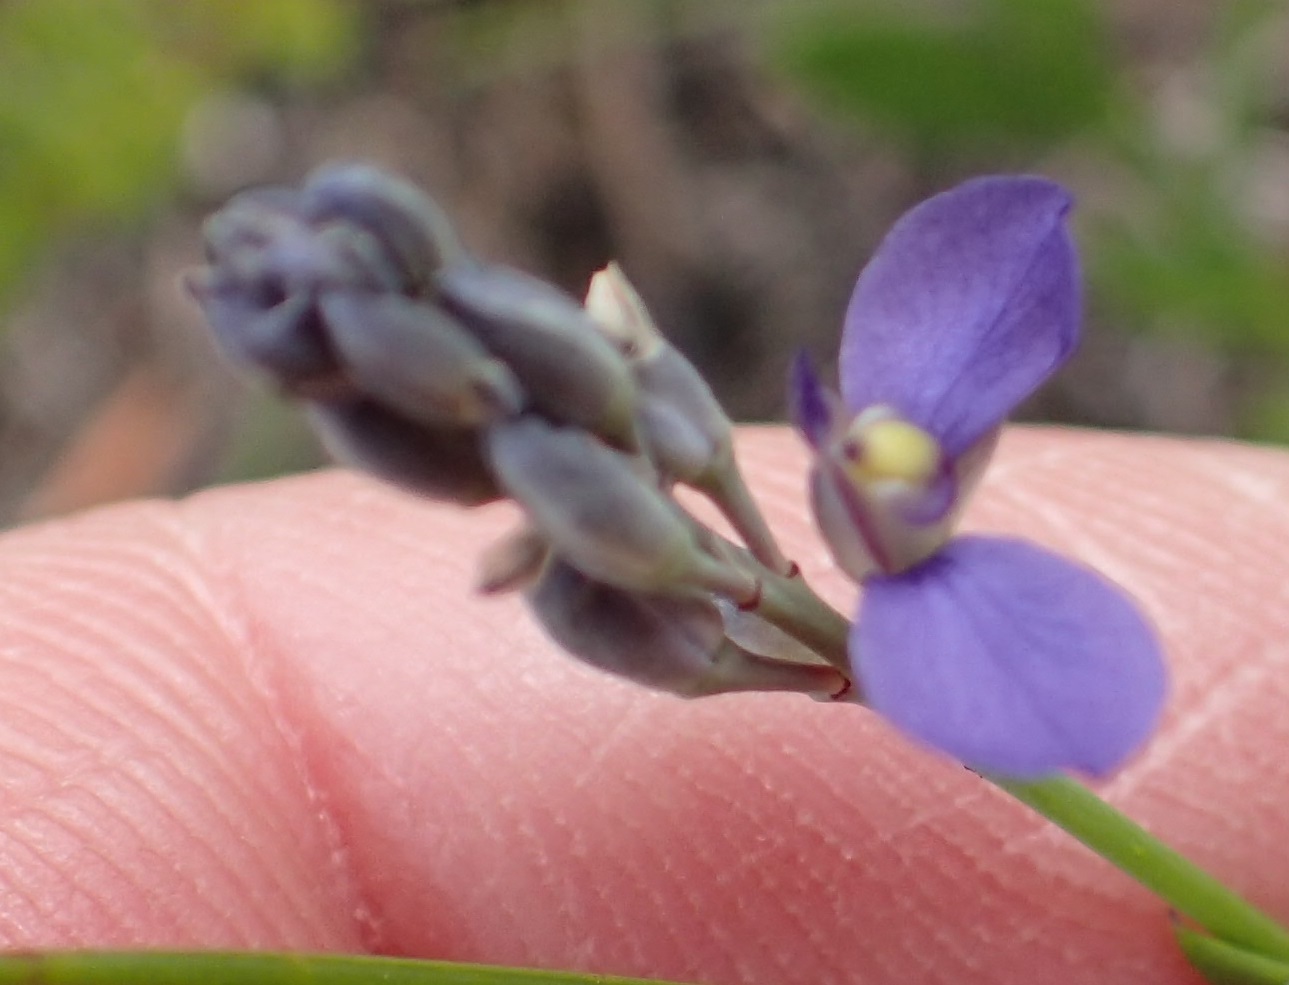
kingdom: Plantae
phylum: Tracheophyta
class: Magnoliopsida
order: Fabales
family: Polygalaceae
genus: Comesperma
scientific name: Comesperma calymega
